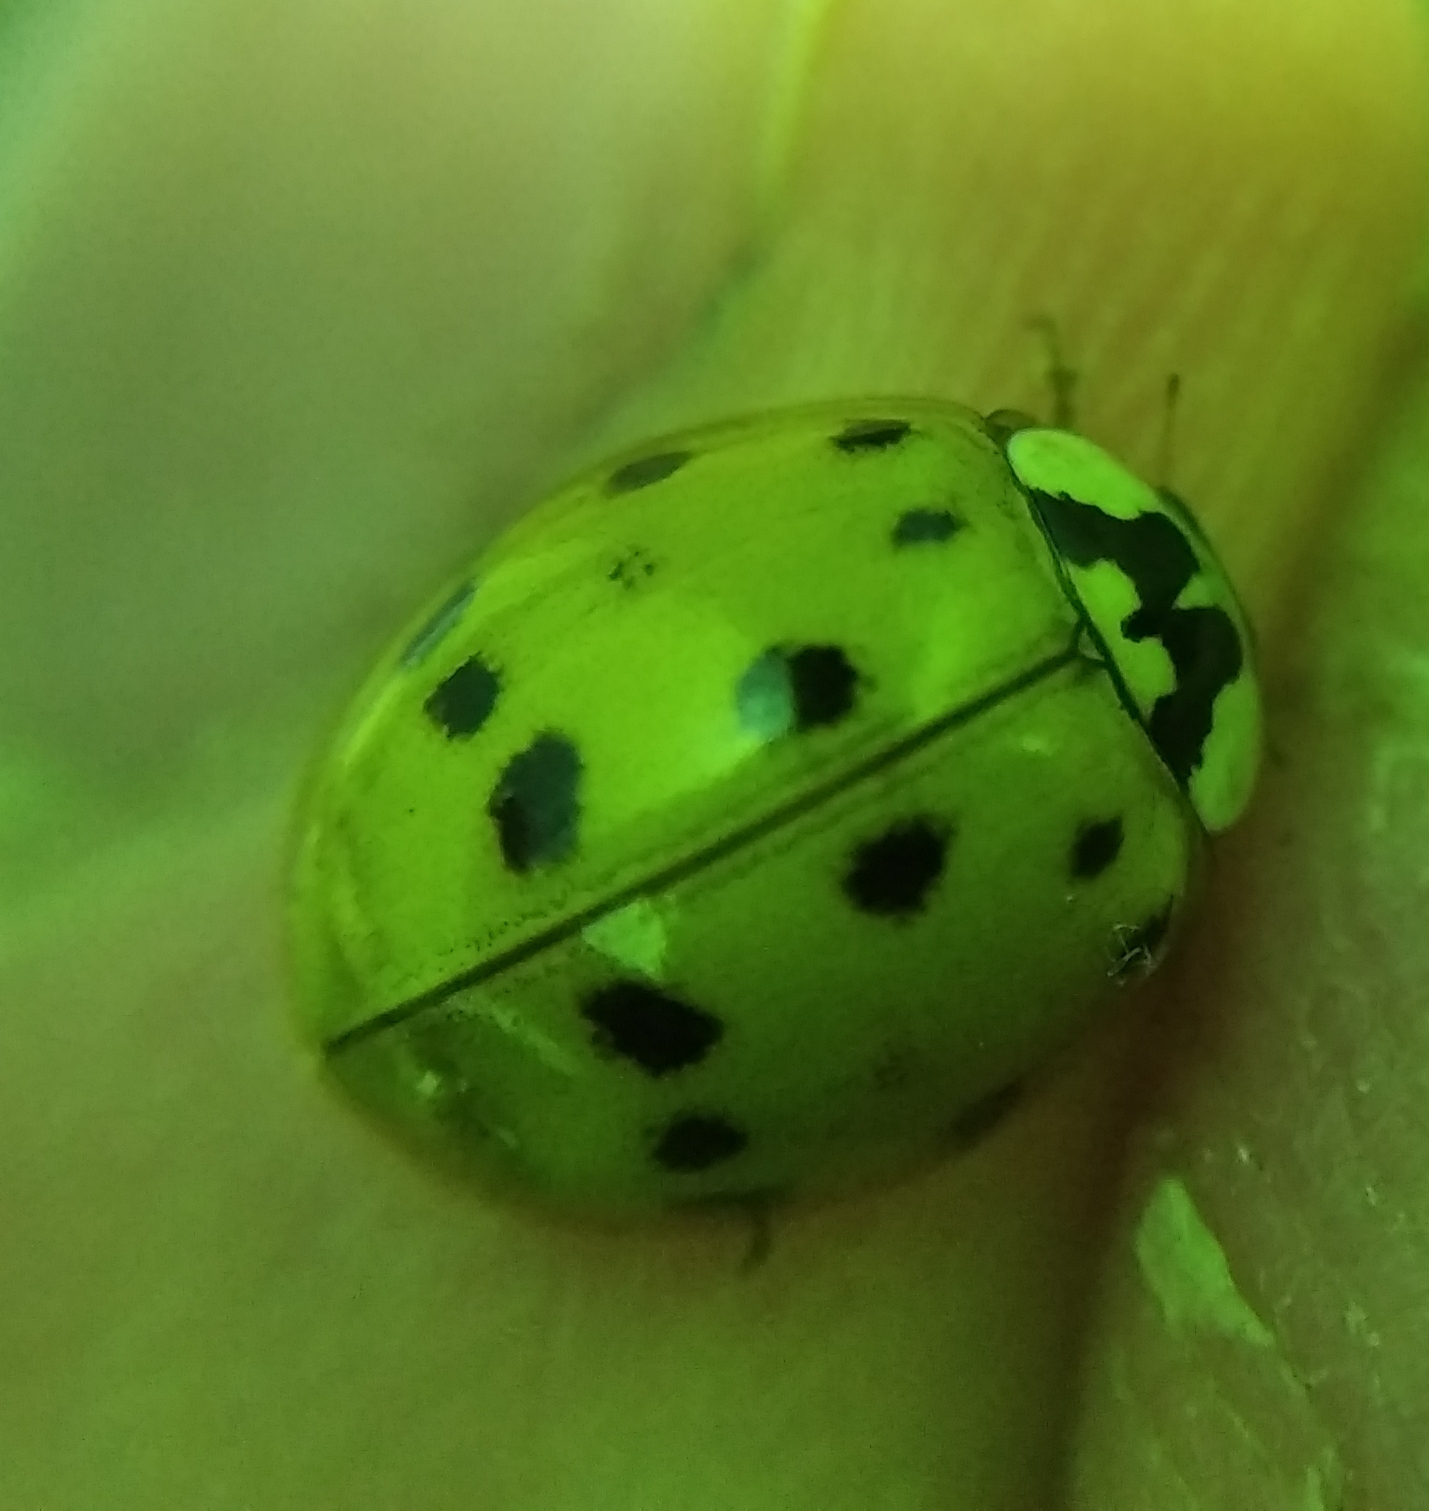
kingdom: Animalia
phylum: Arthropoda
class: Insecta
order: Coleoptera
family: Coccinellidae
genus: Harmonia
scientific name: Harmonia axyridis
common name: Harlequin ladybird
